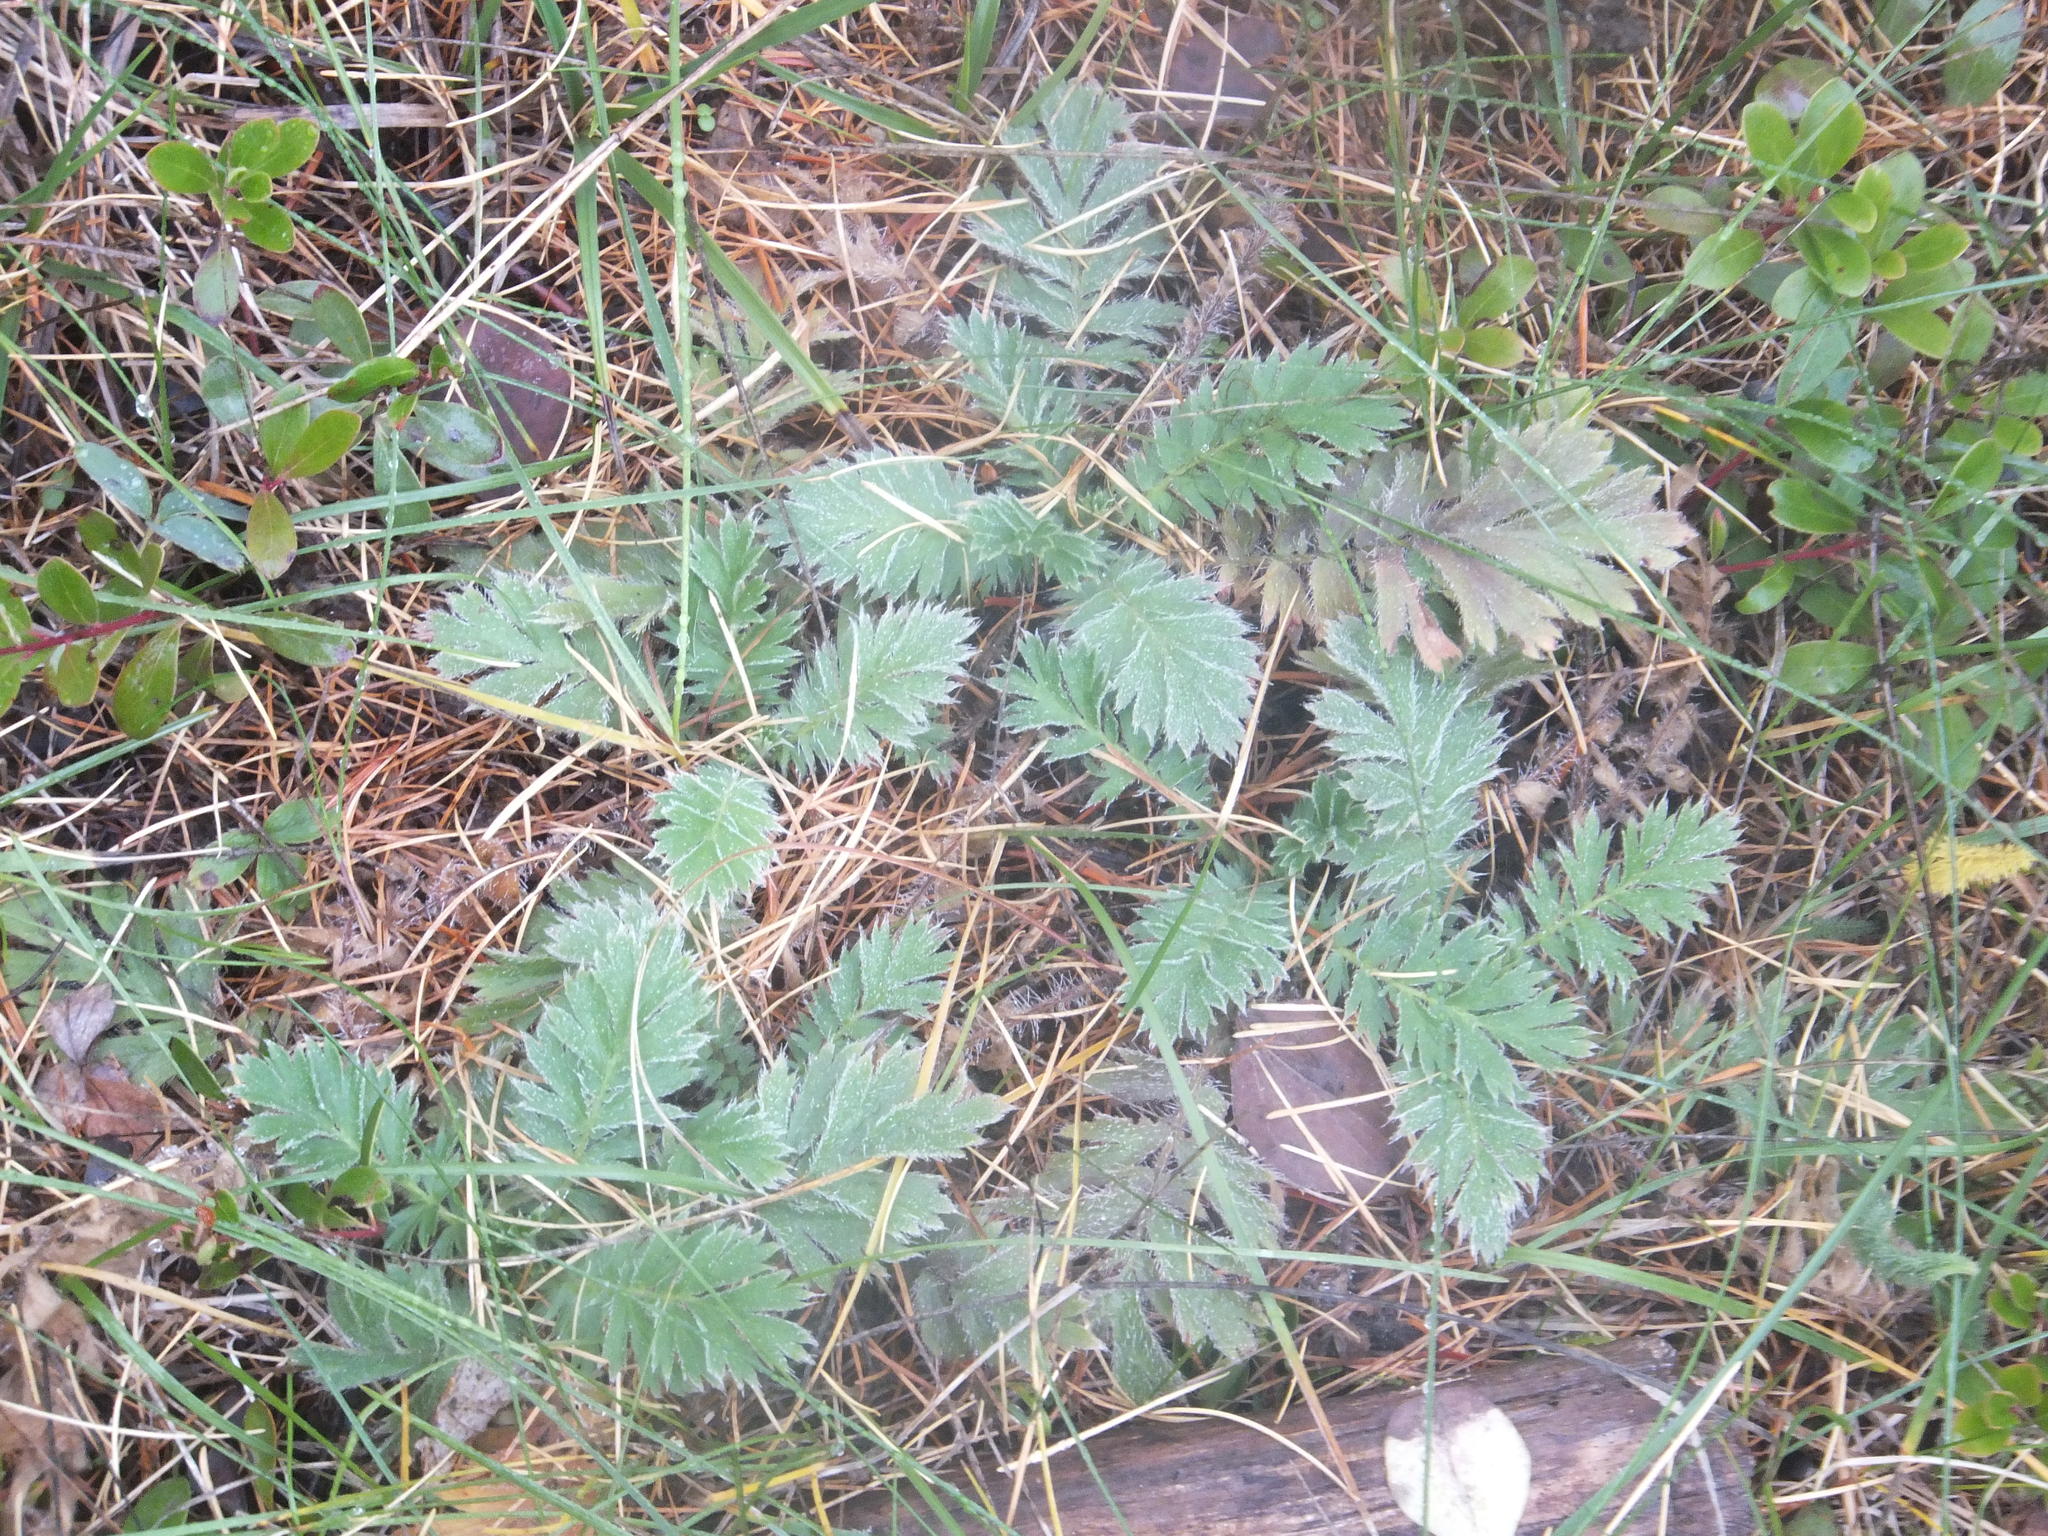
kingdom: Plantae
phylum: Tracheophyta
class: Magnoliopsida
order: Rosales
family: Rosaceae
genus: Geum
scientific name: Geum triflorum
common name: Old man's whiskers
